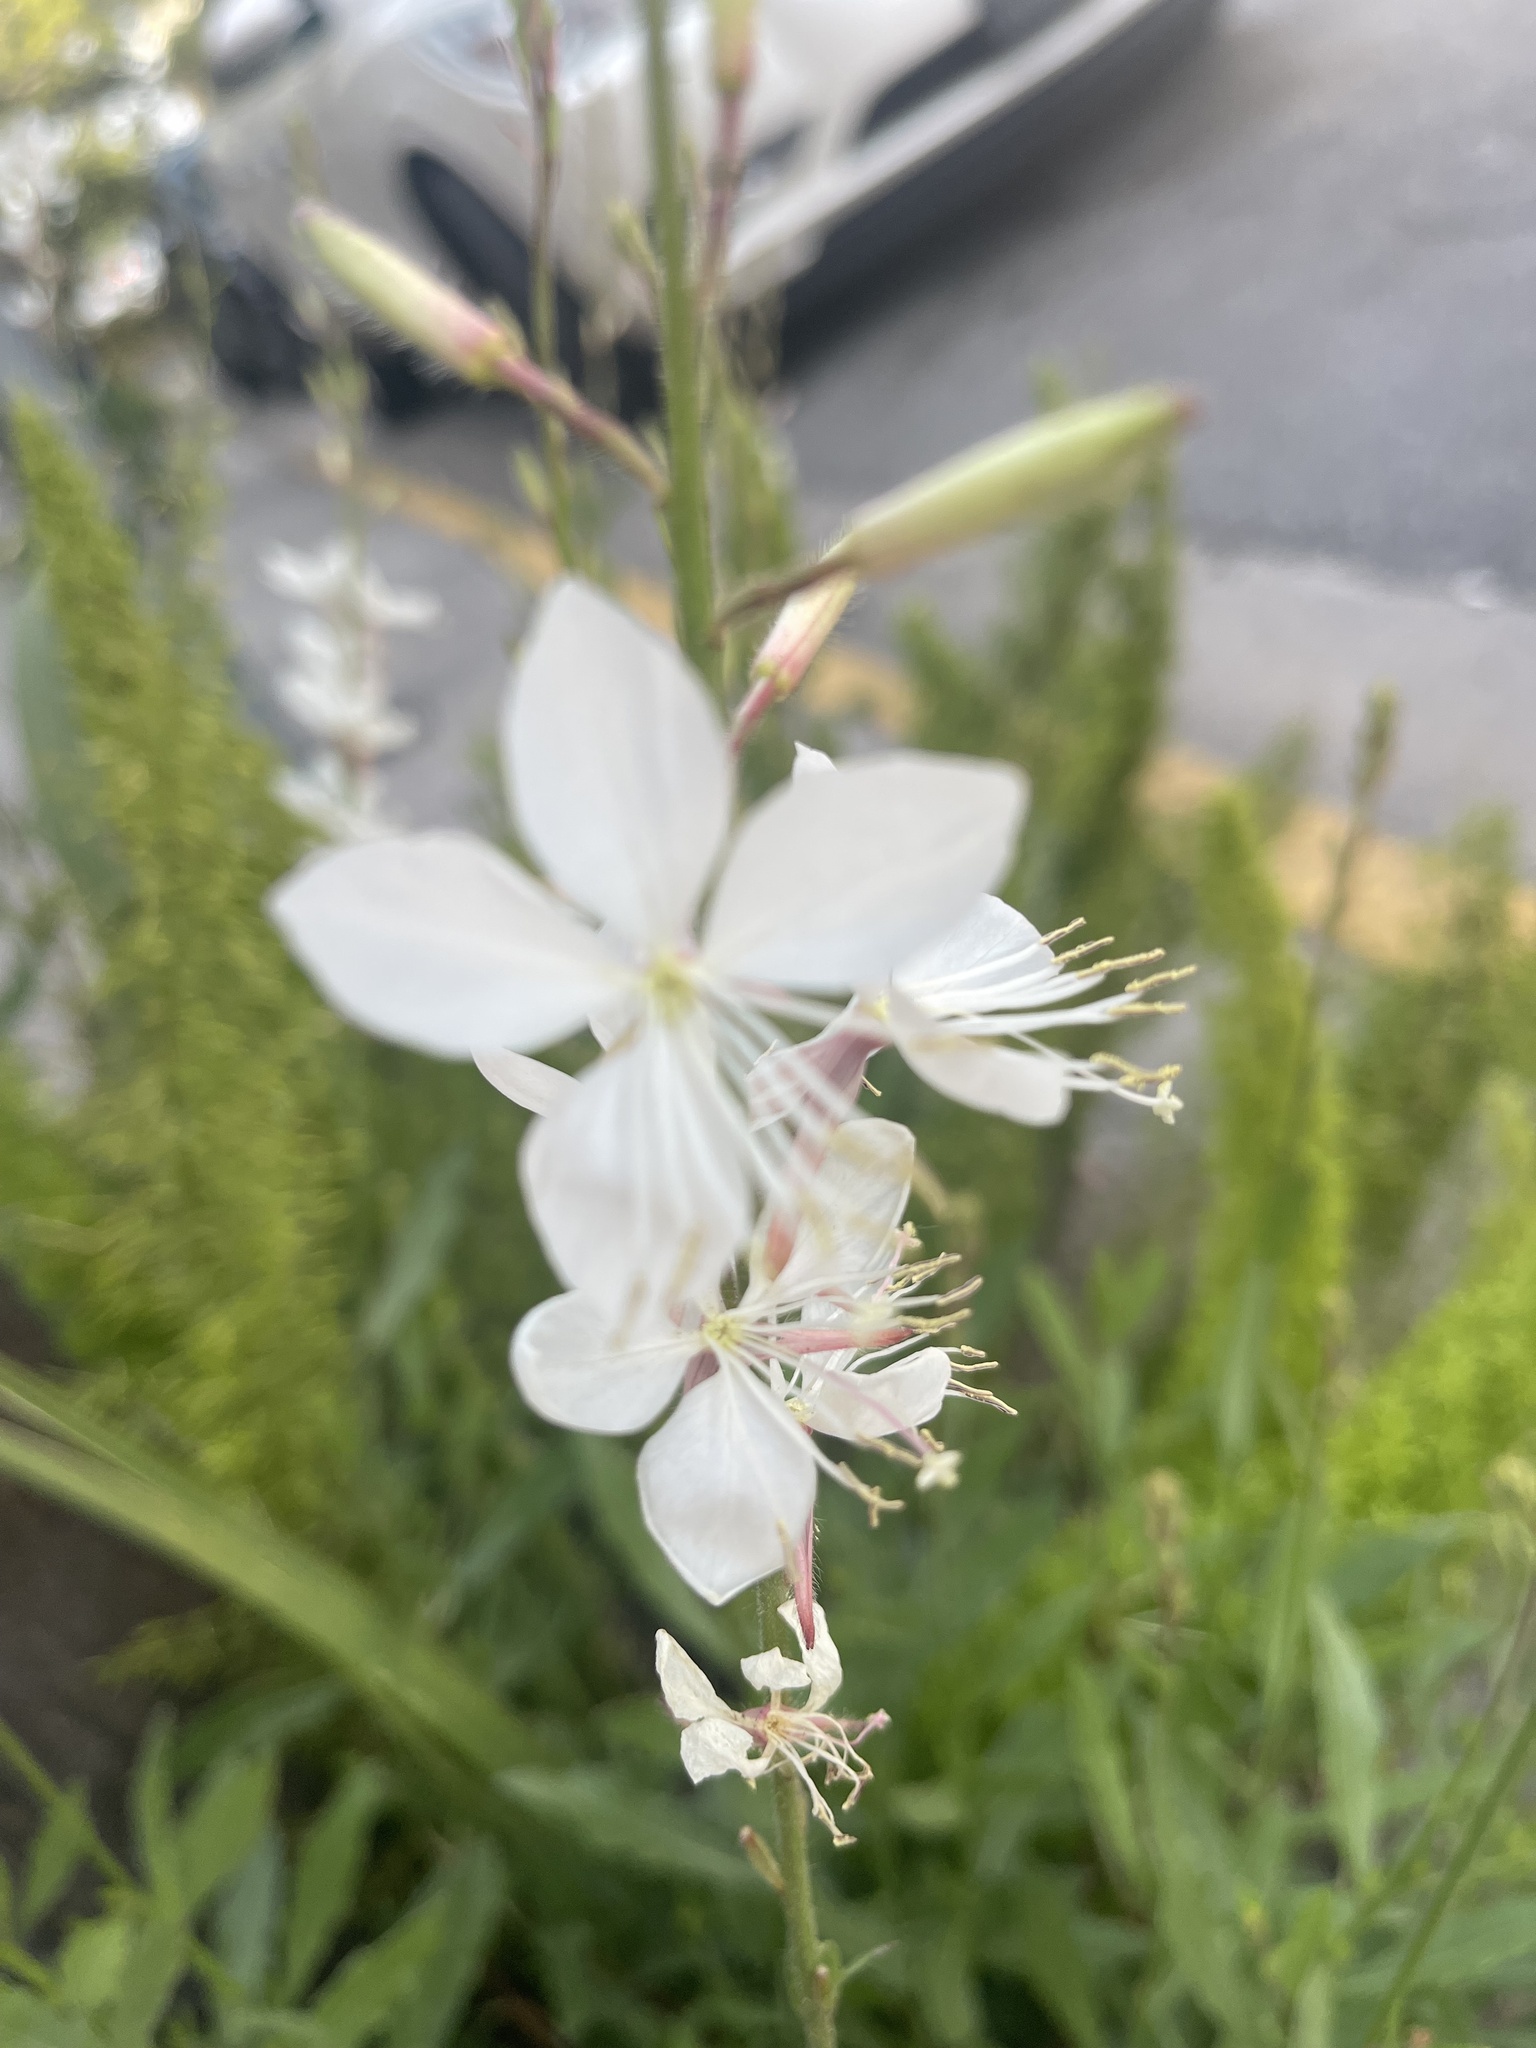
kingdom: Plantae
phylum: Tracheophyta
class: Magnoliopsida
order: Myrtales
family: Onagraceae
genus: Oenothera
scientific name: Oenothera lindheimeri
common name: Lindheimer's beeblossom
